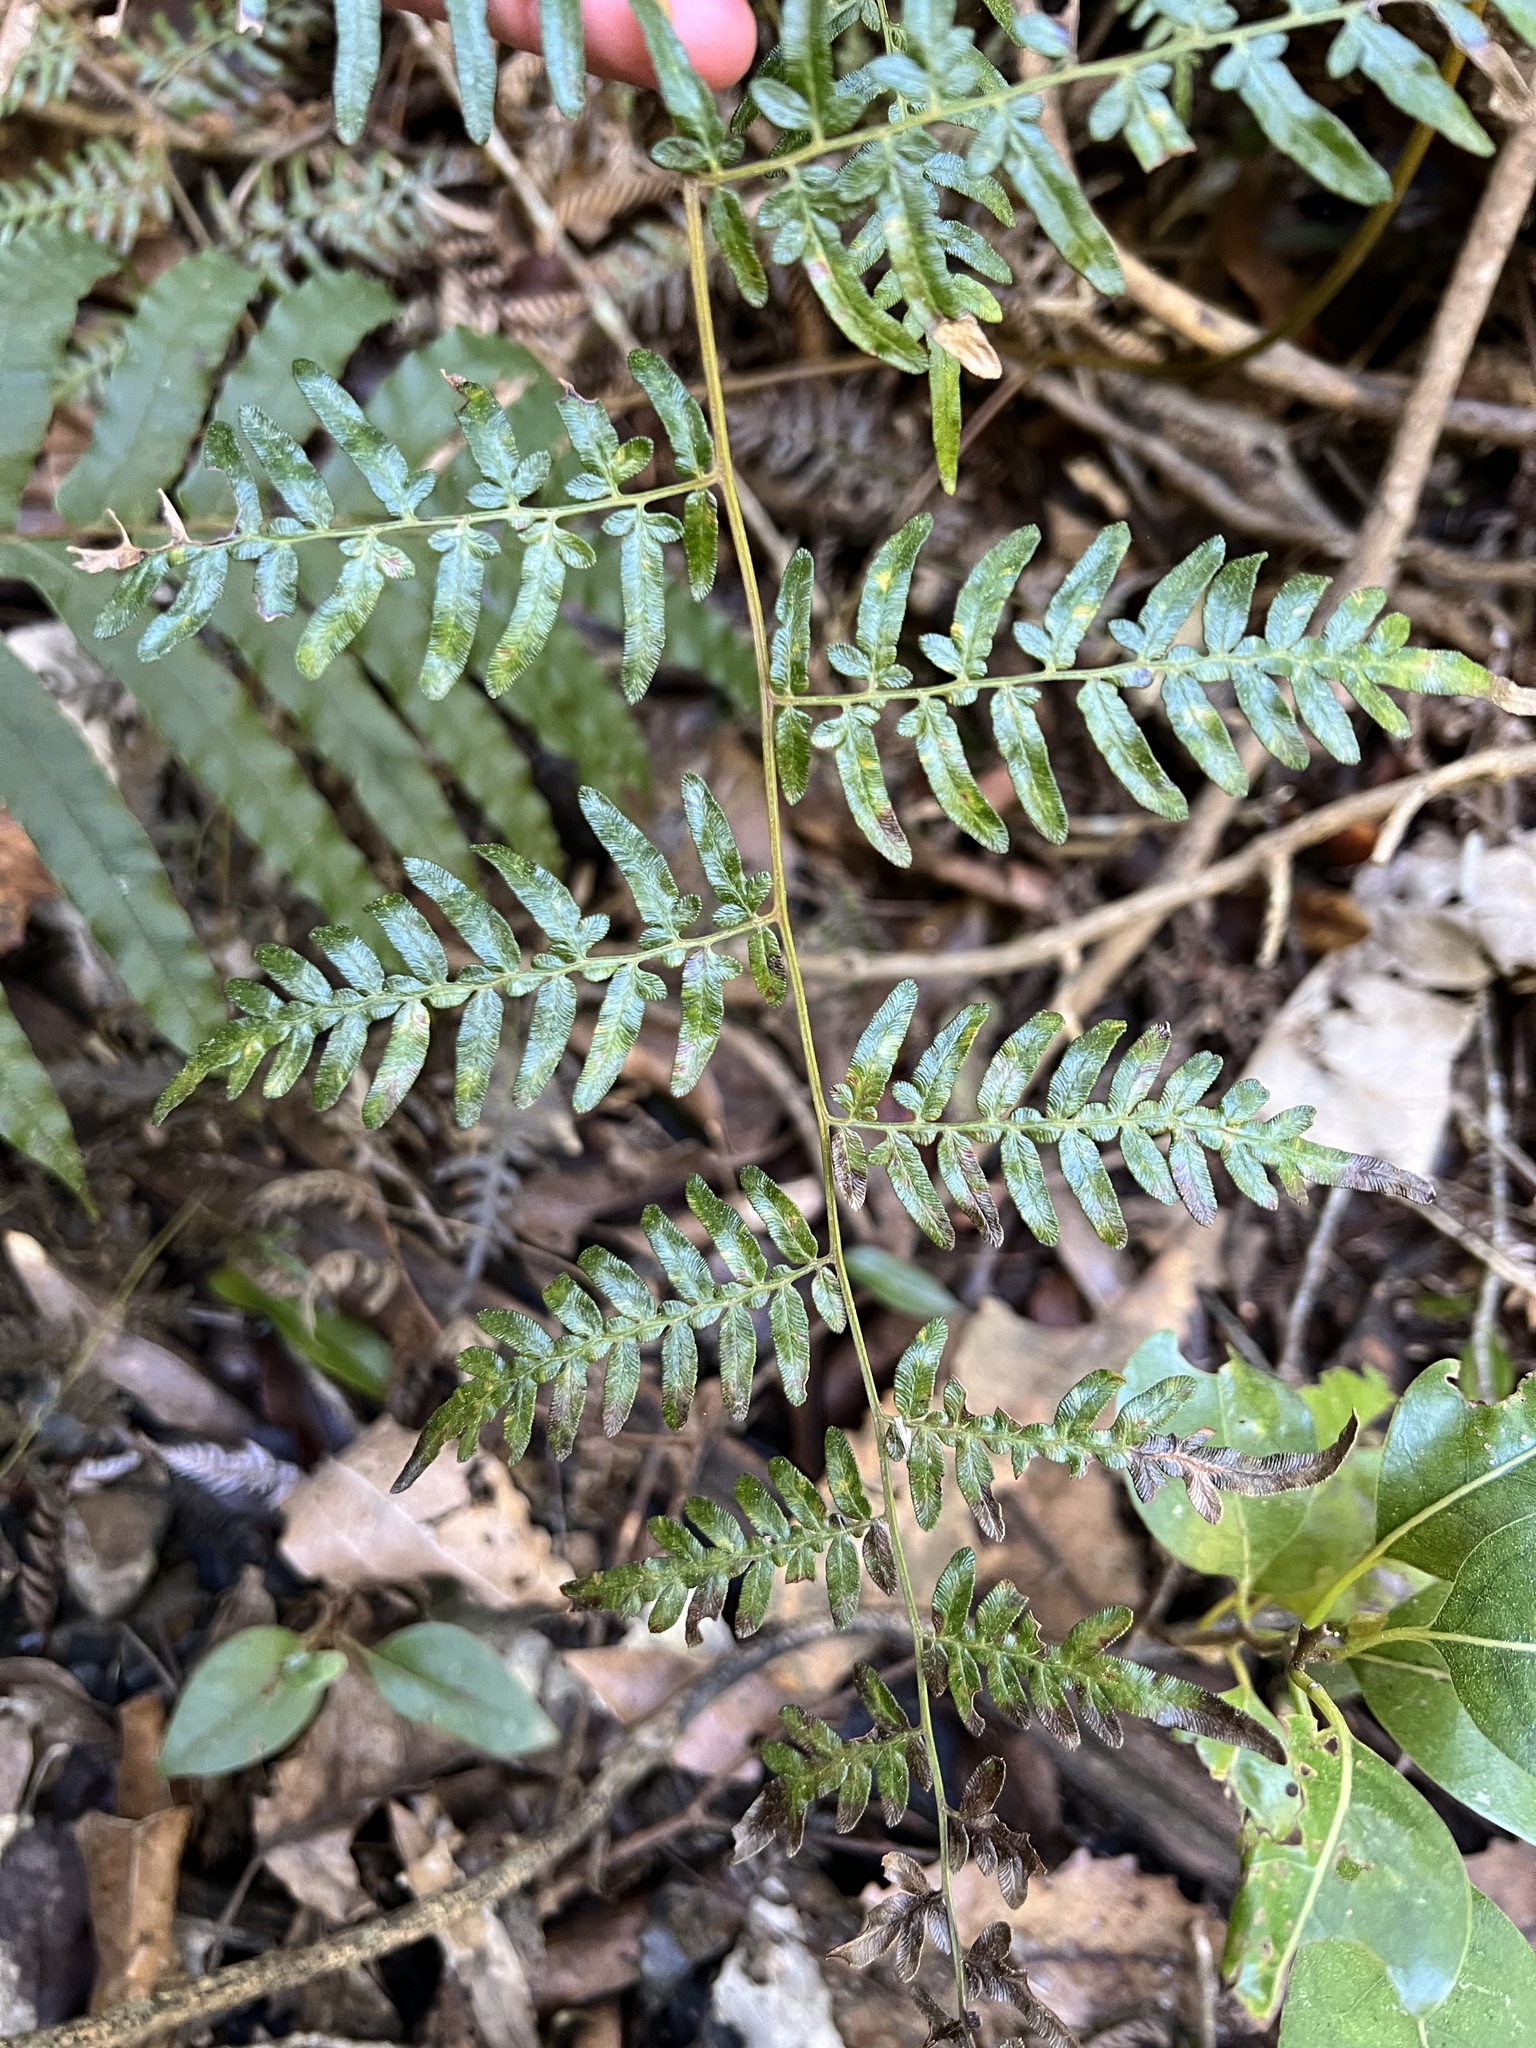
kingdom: Plantae
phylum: Tracheophyta
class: Polypodiopsida
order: Polypodiales
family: Dennstaedtiaceae
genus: Pteridium
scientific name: Pteridium esculentum
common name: Bracken fern
